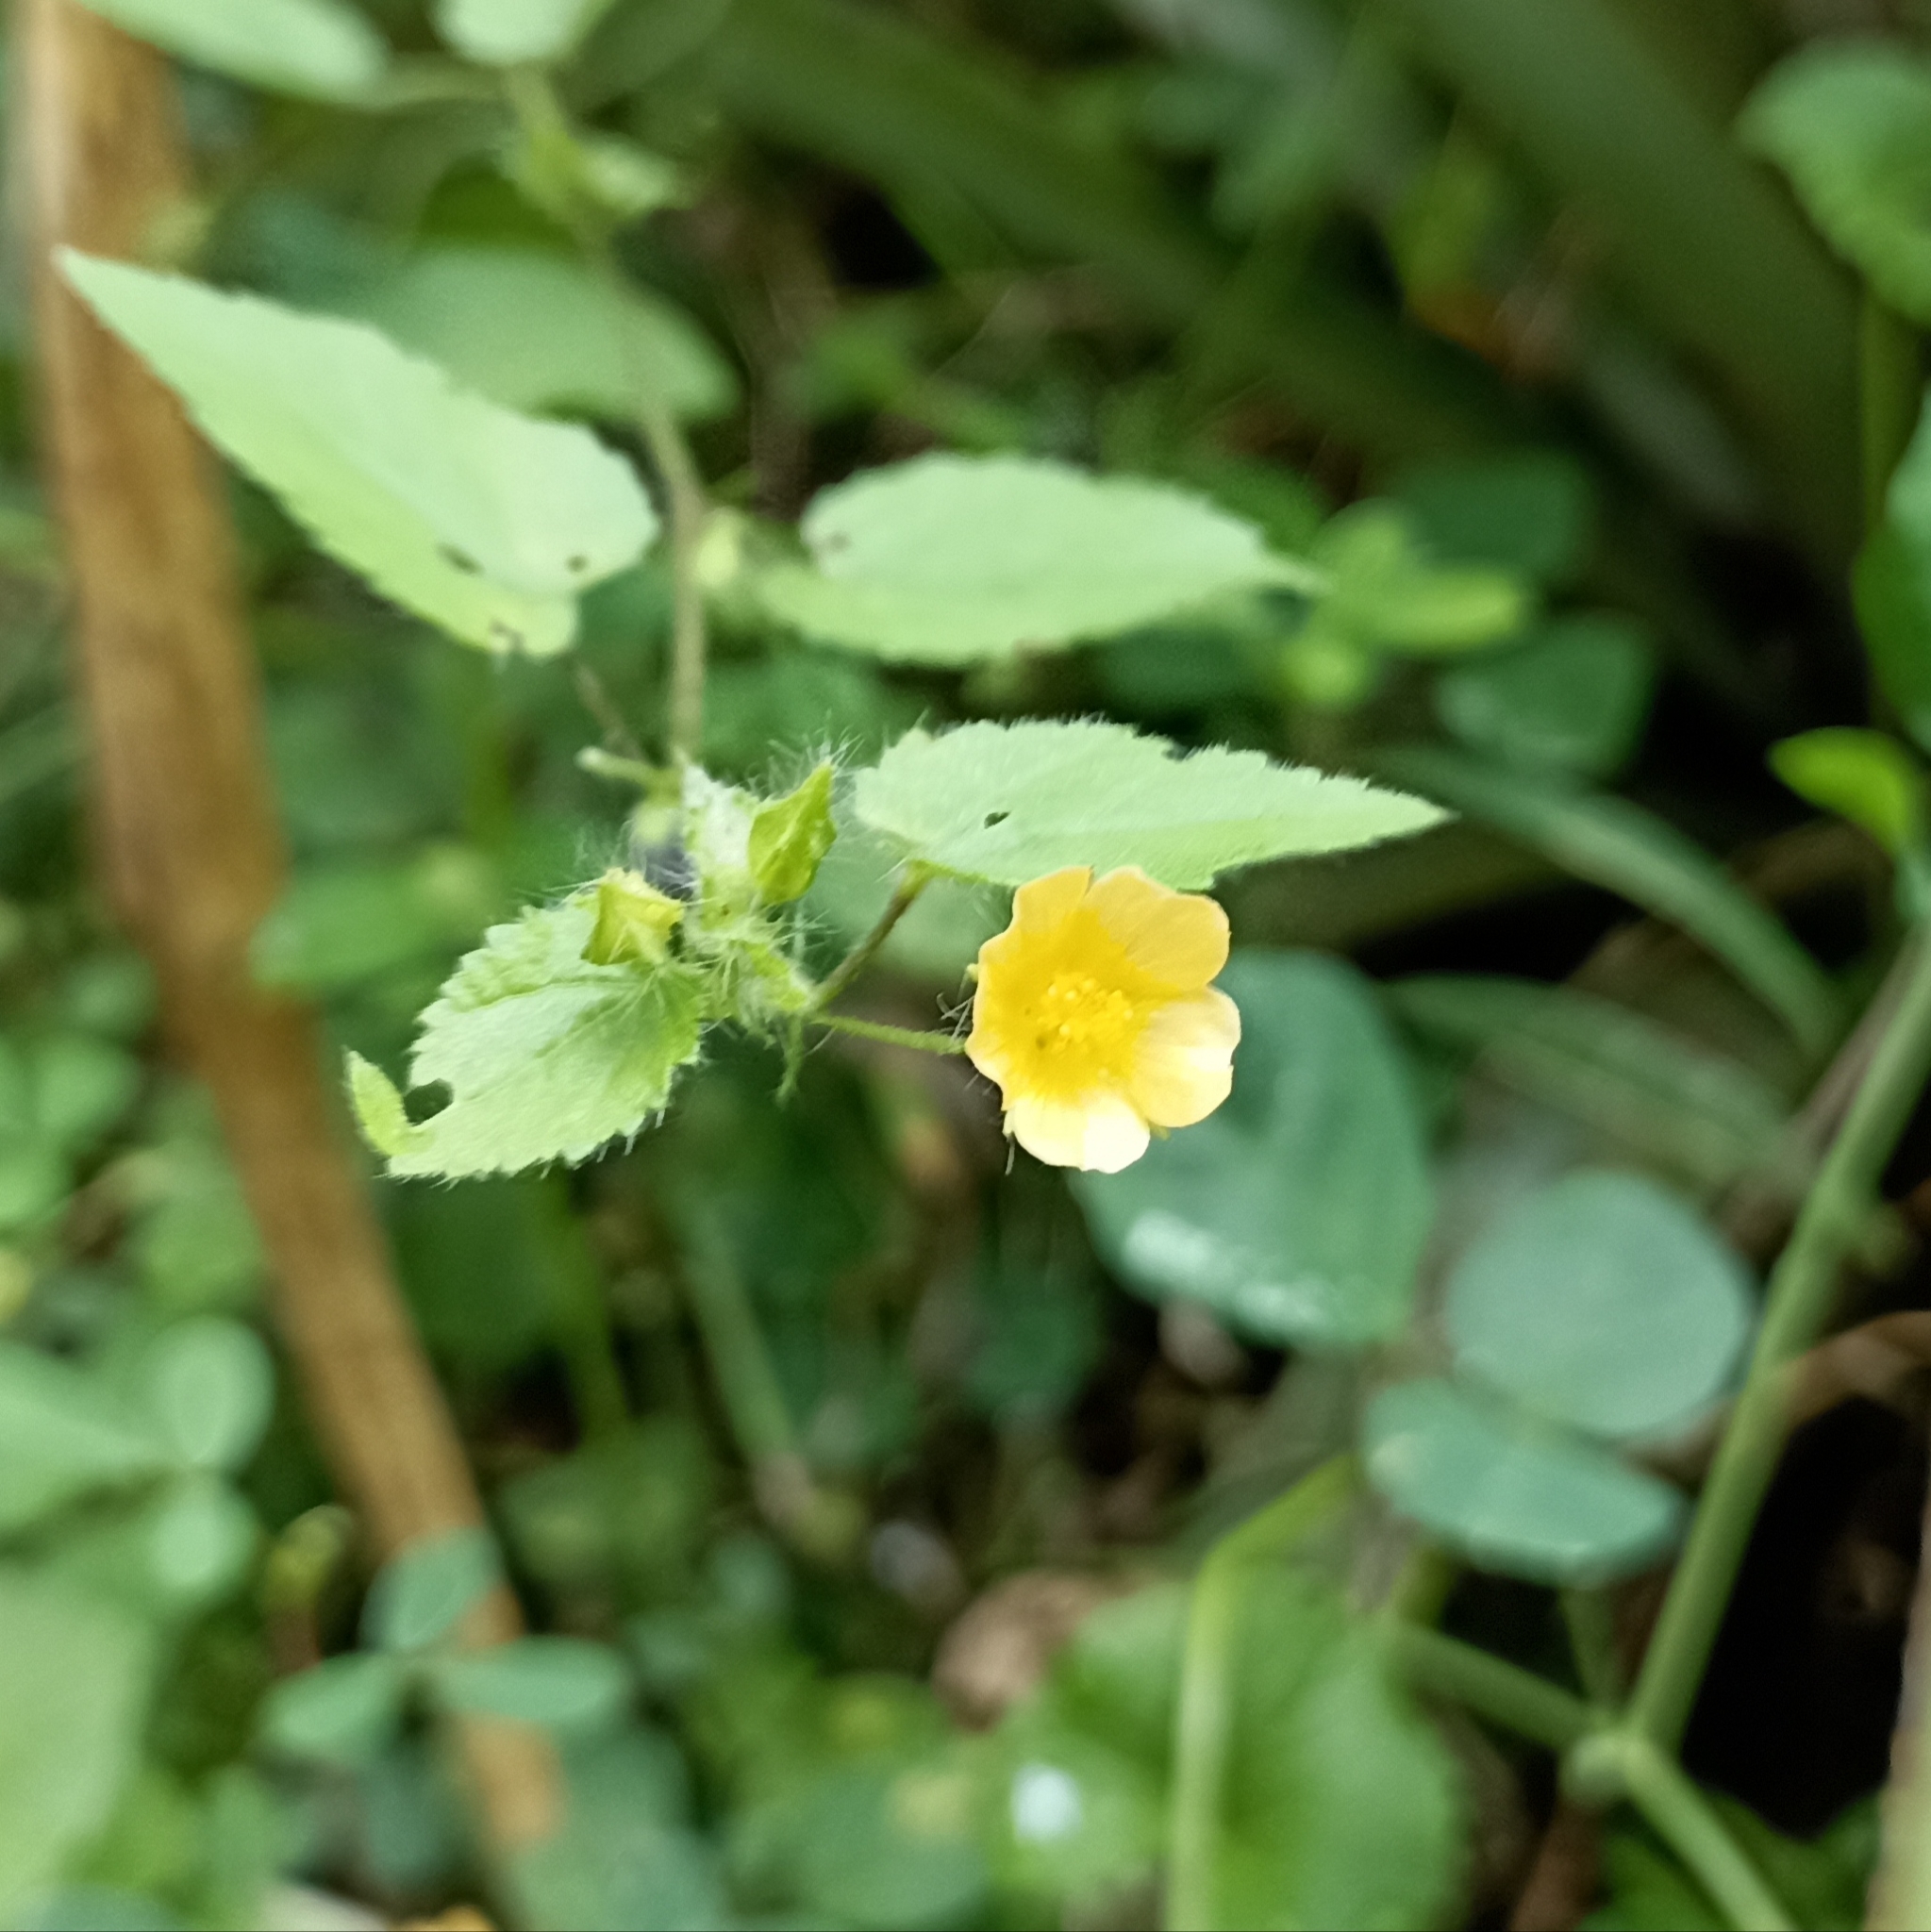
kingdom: Plantae
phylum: Tracheophyta
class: Magnoliopsida
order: Malvales
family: Malvaceae
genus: Sida
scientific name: Sida cordata
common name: Long-stalk sida
